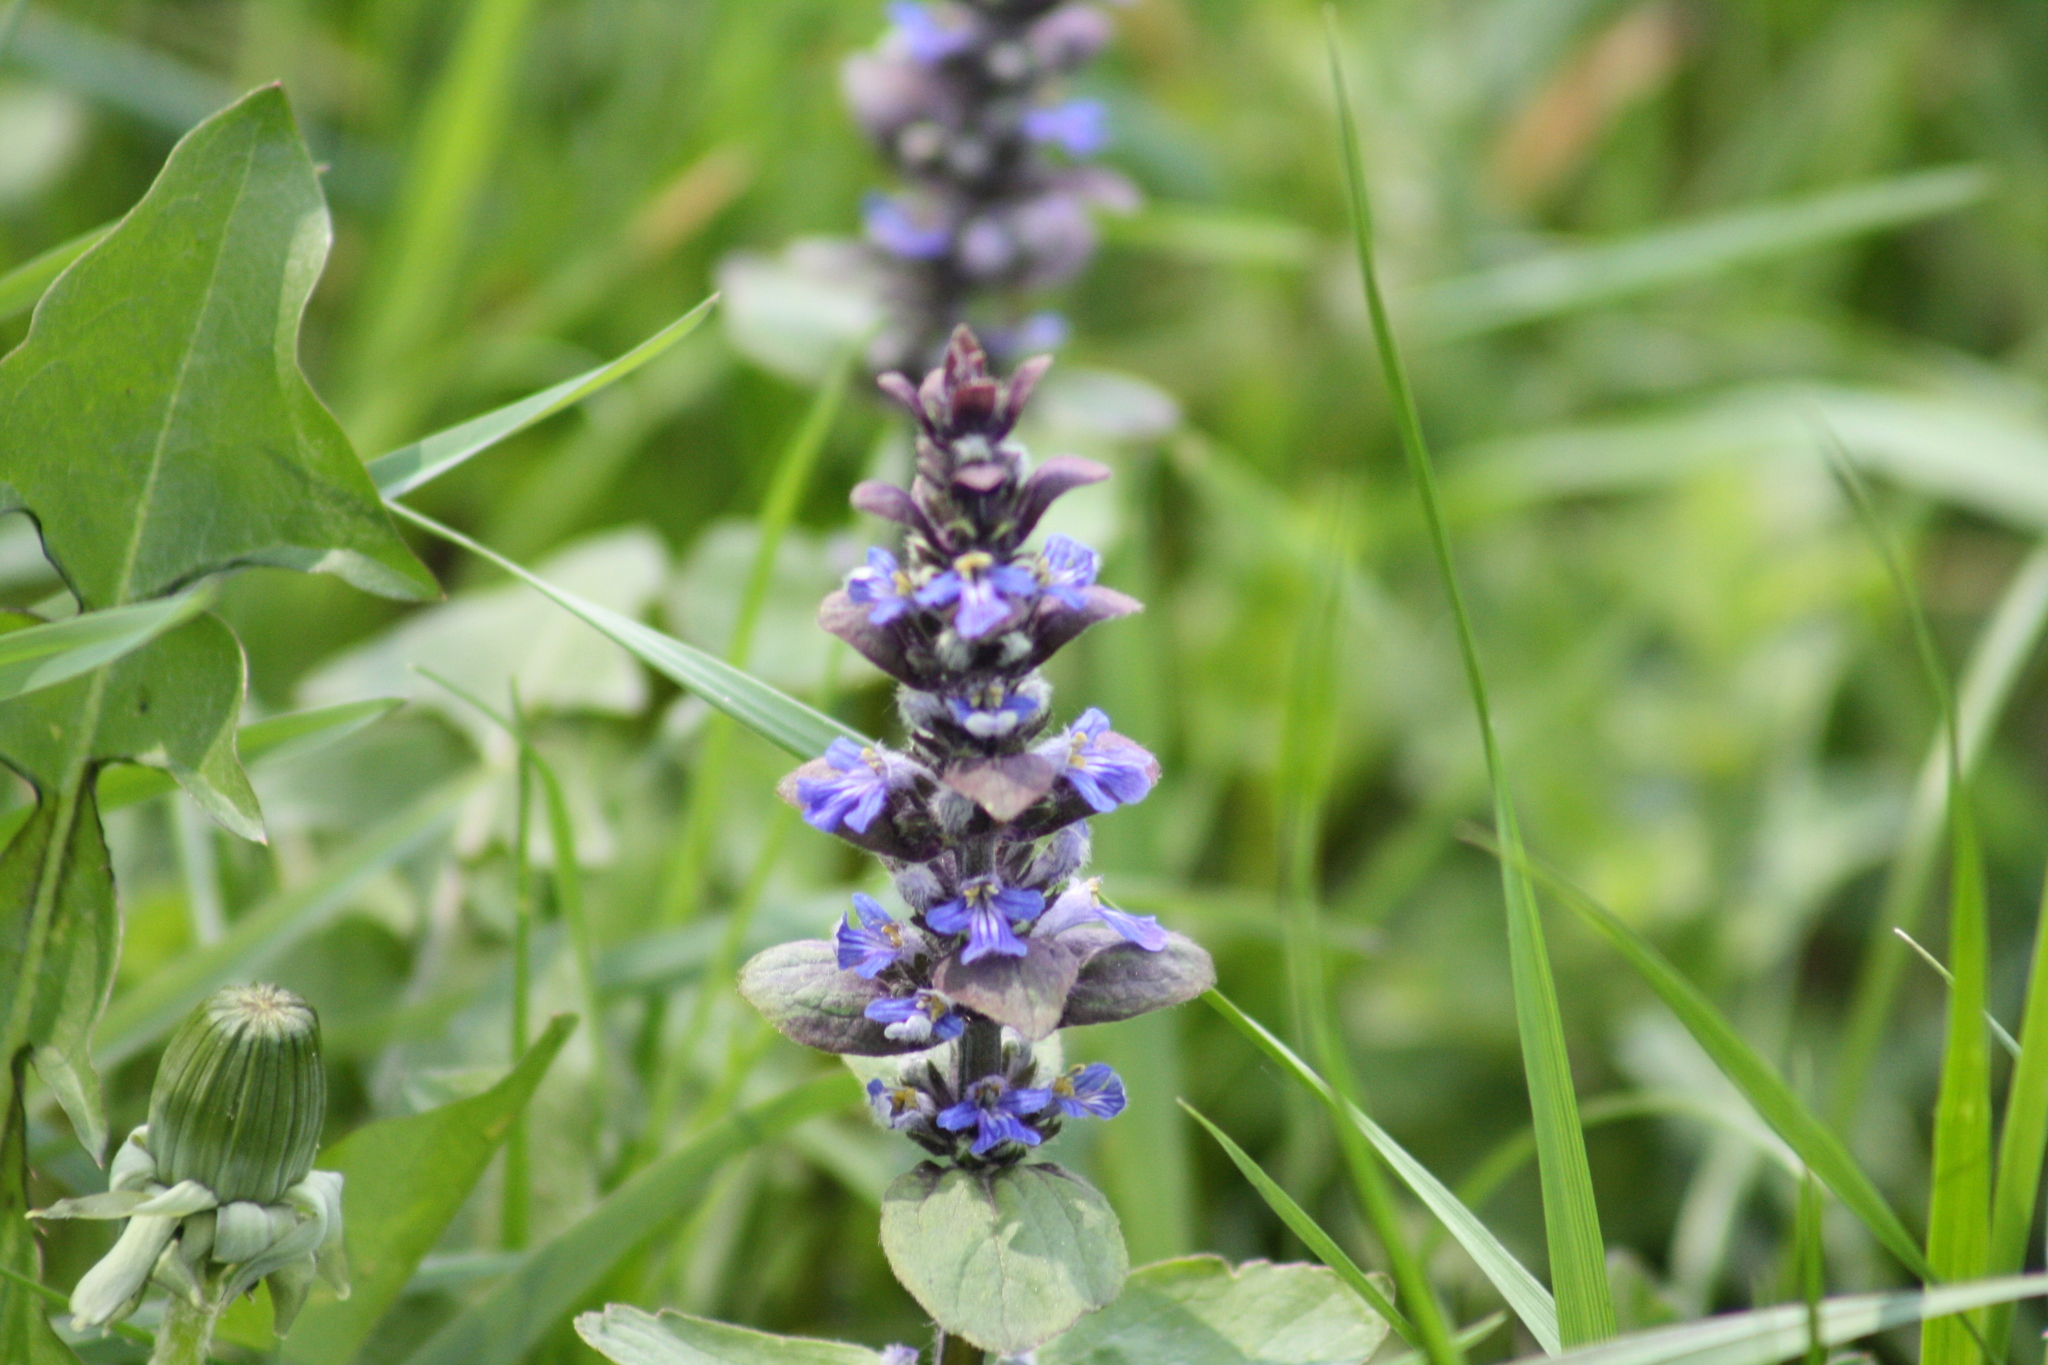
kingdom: Plantae
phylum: Tracheophyta
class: Magnoliopsida
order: Lamiales
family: Lamiaceae
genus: Ajuga
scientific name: Ajuga reptans
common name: Bugle
